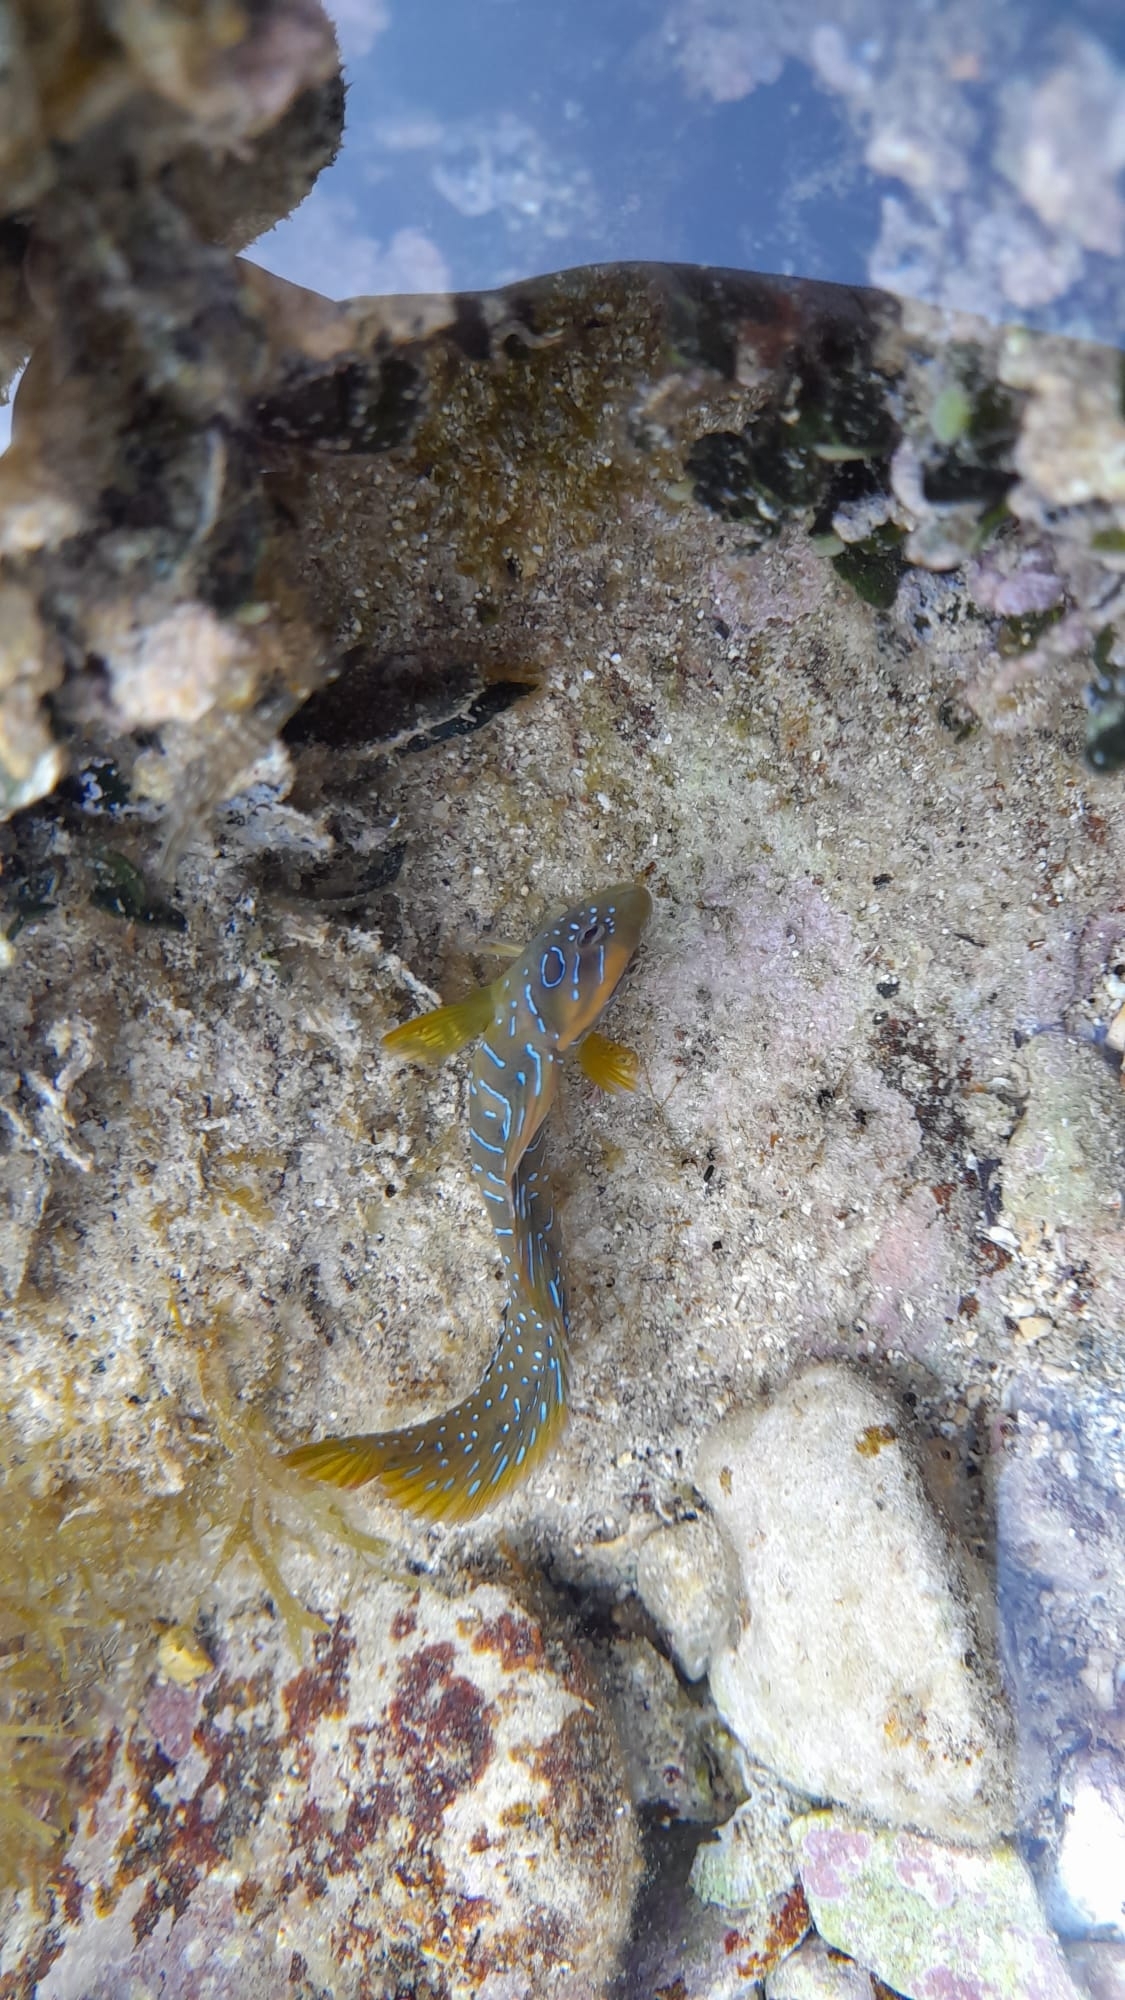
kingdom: Animalia
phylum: Chordata
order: Perciformes
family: Blenniidae
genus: Salaria
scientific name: Salaria pavo
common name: Peacock blenny
